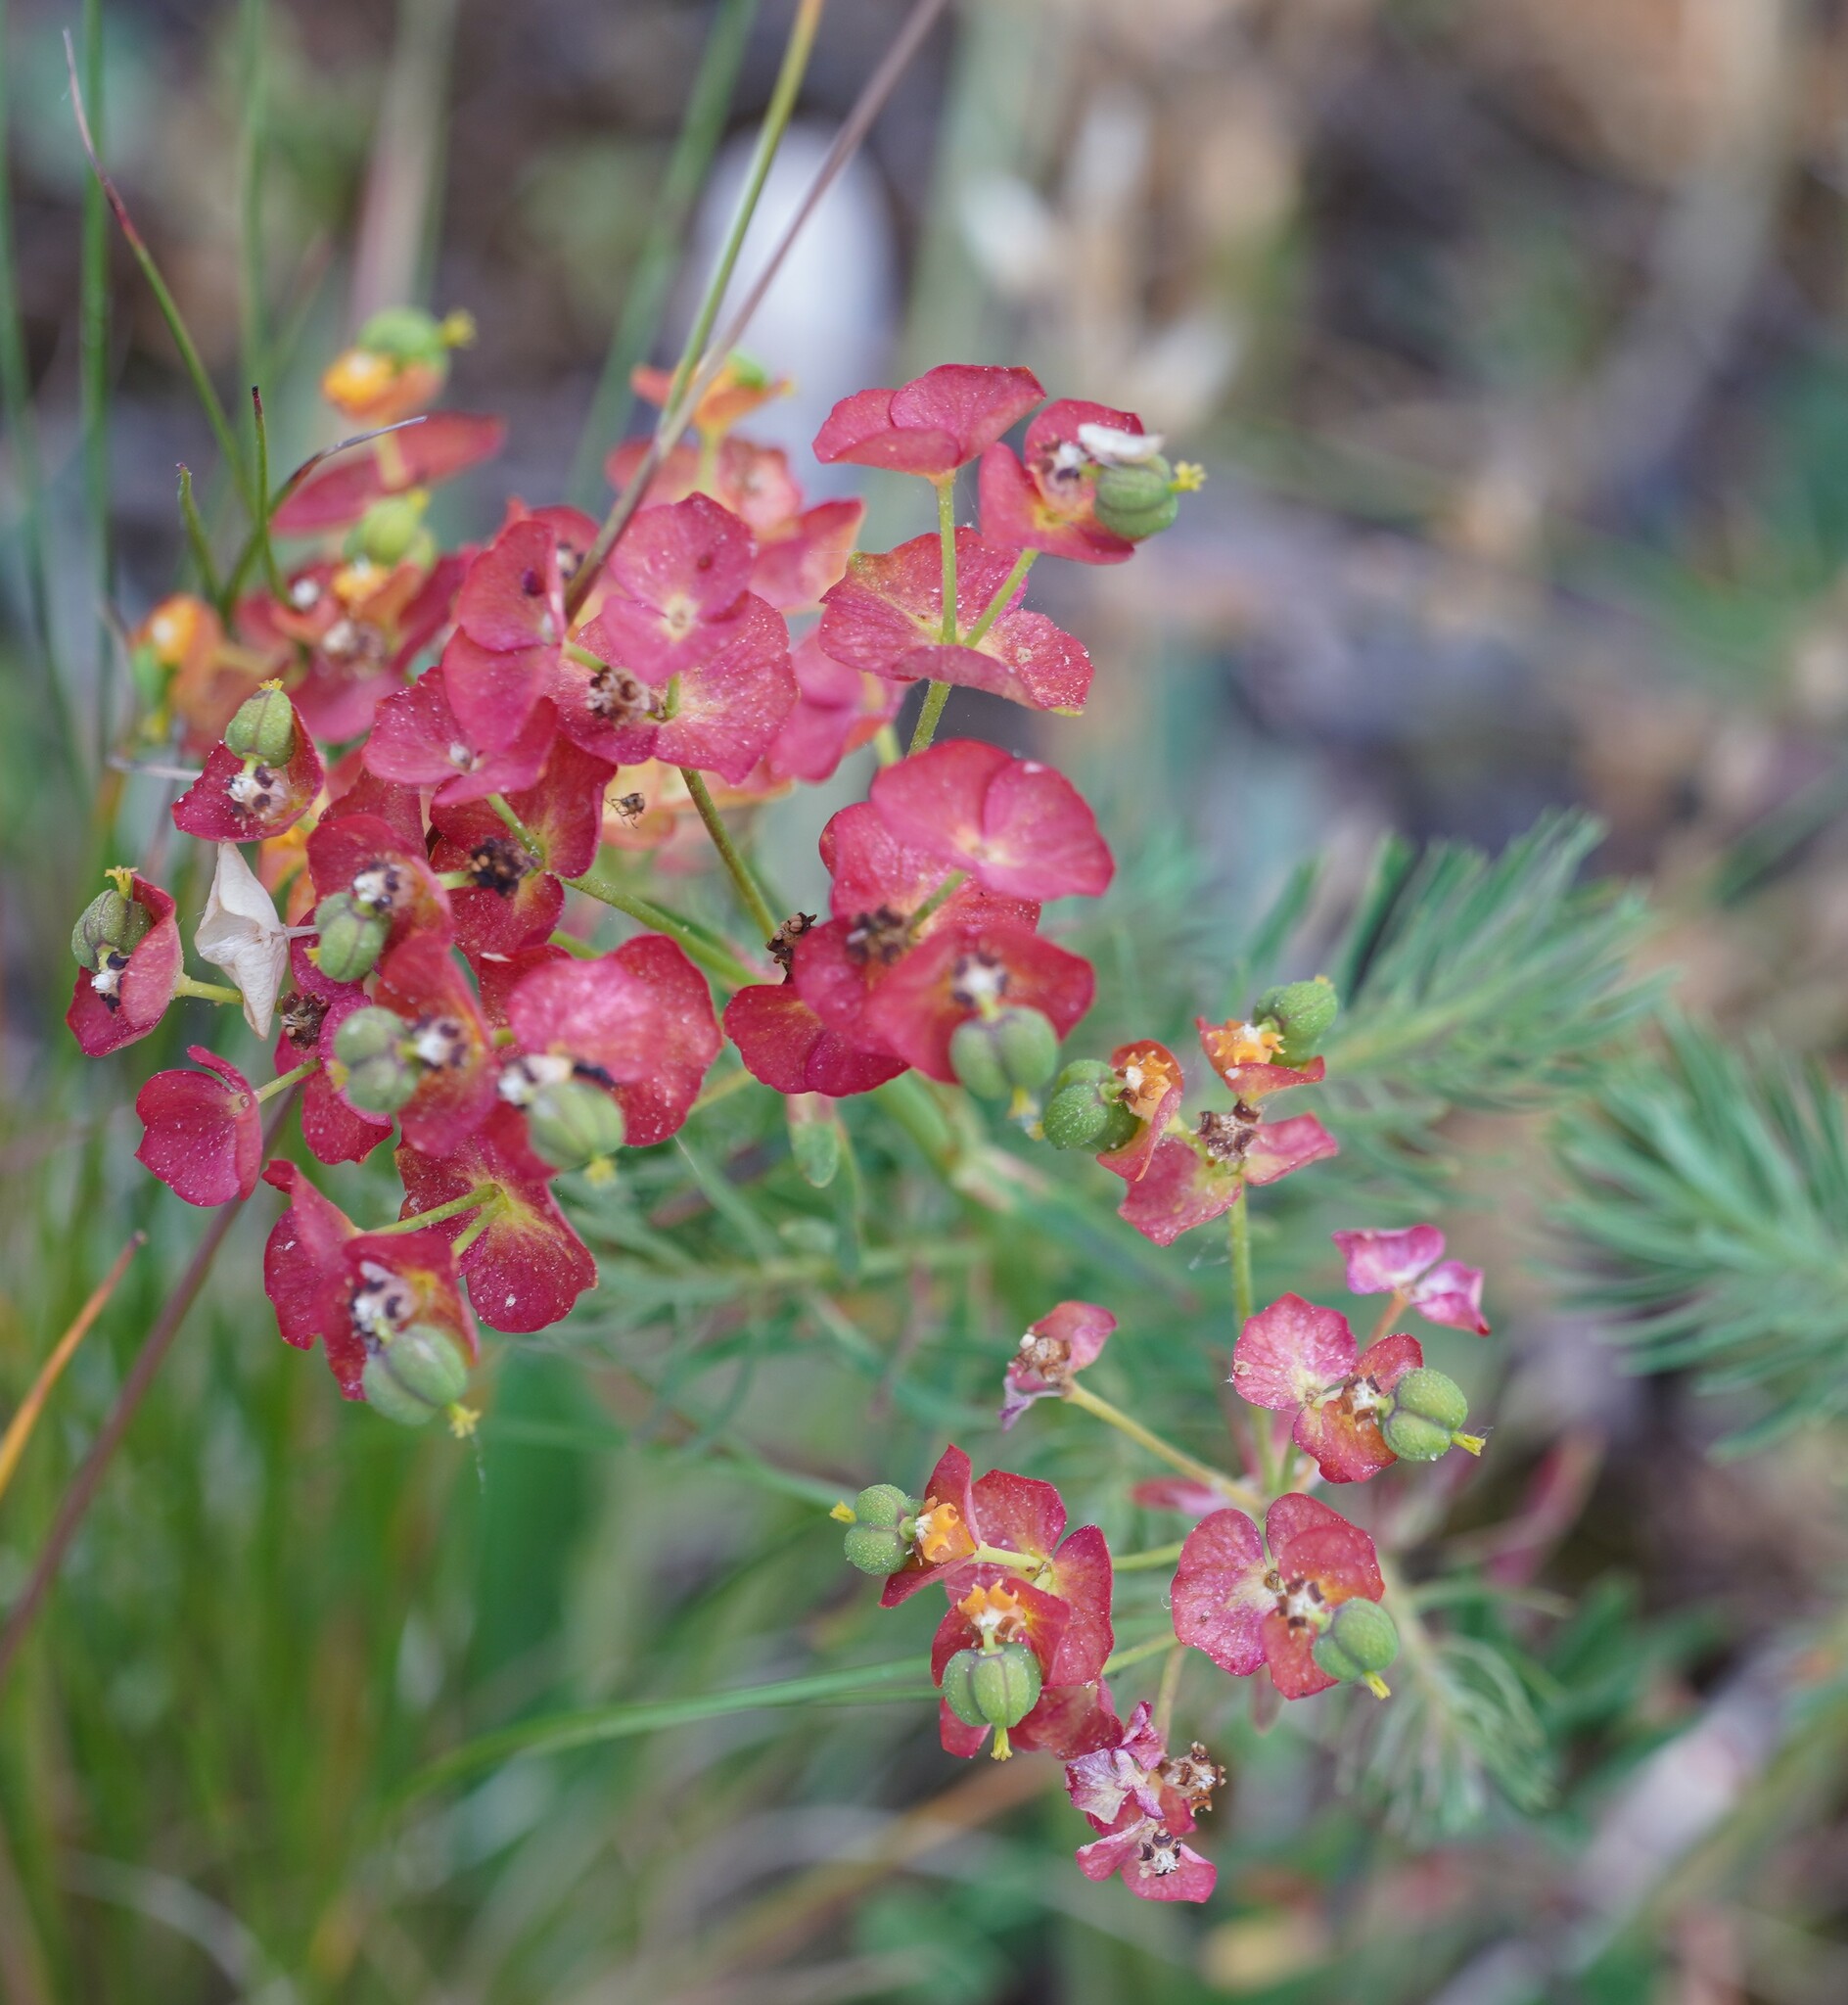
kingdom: Plantae
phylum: Tracheophyta
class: Magnoliopsida
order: Malpighiales
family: Euphorbiaceae
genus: Euphorbia
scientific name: Euphorbia cyparissias
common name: Cypress spurge
